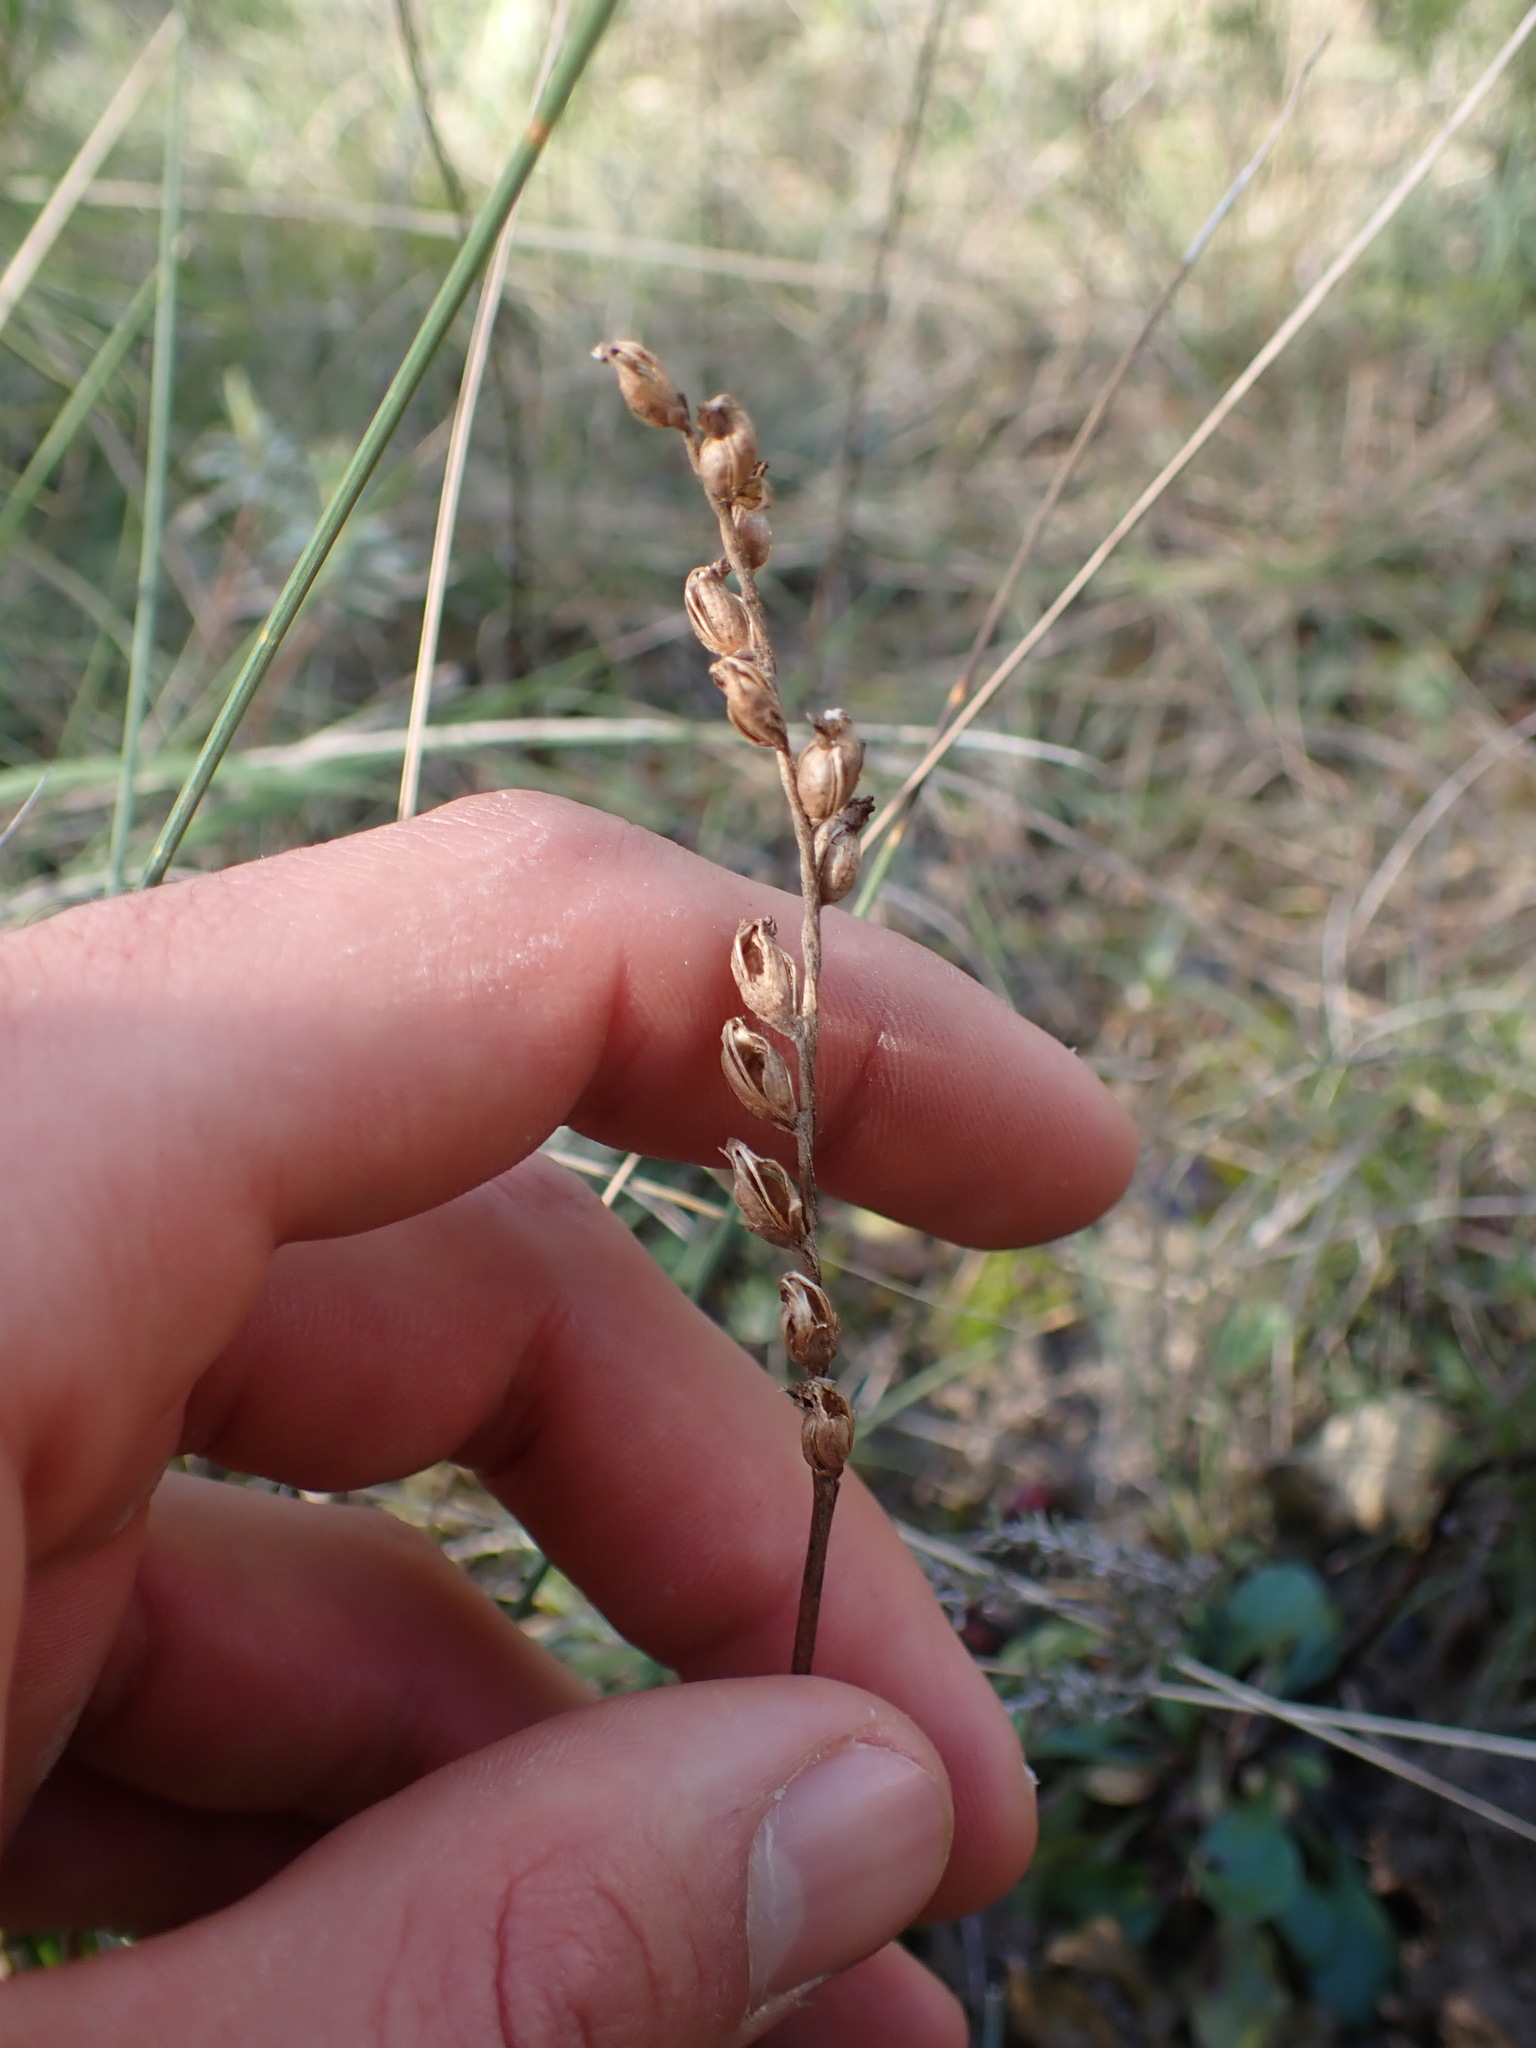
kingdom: Plantae
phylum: Tracheophyta
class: Liliopsida
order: Asparagales
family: Orchidaceae
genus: Spiranthes
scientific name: Spiranthes spiralis
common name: Autumn lady's-tresses
